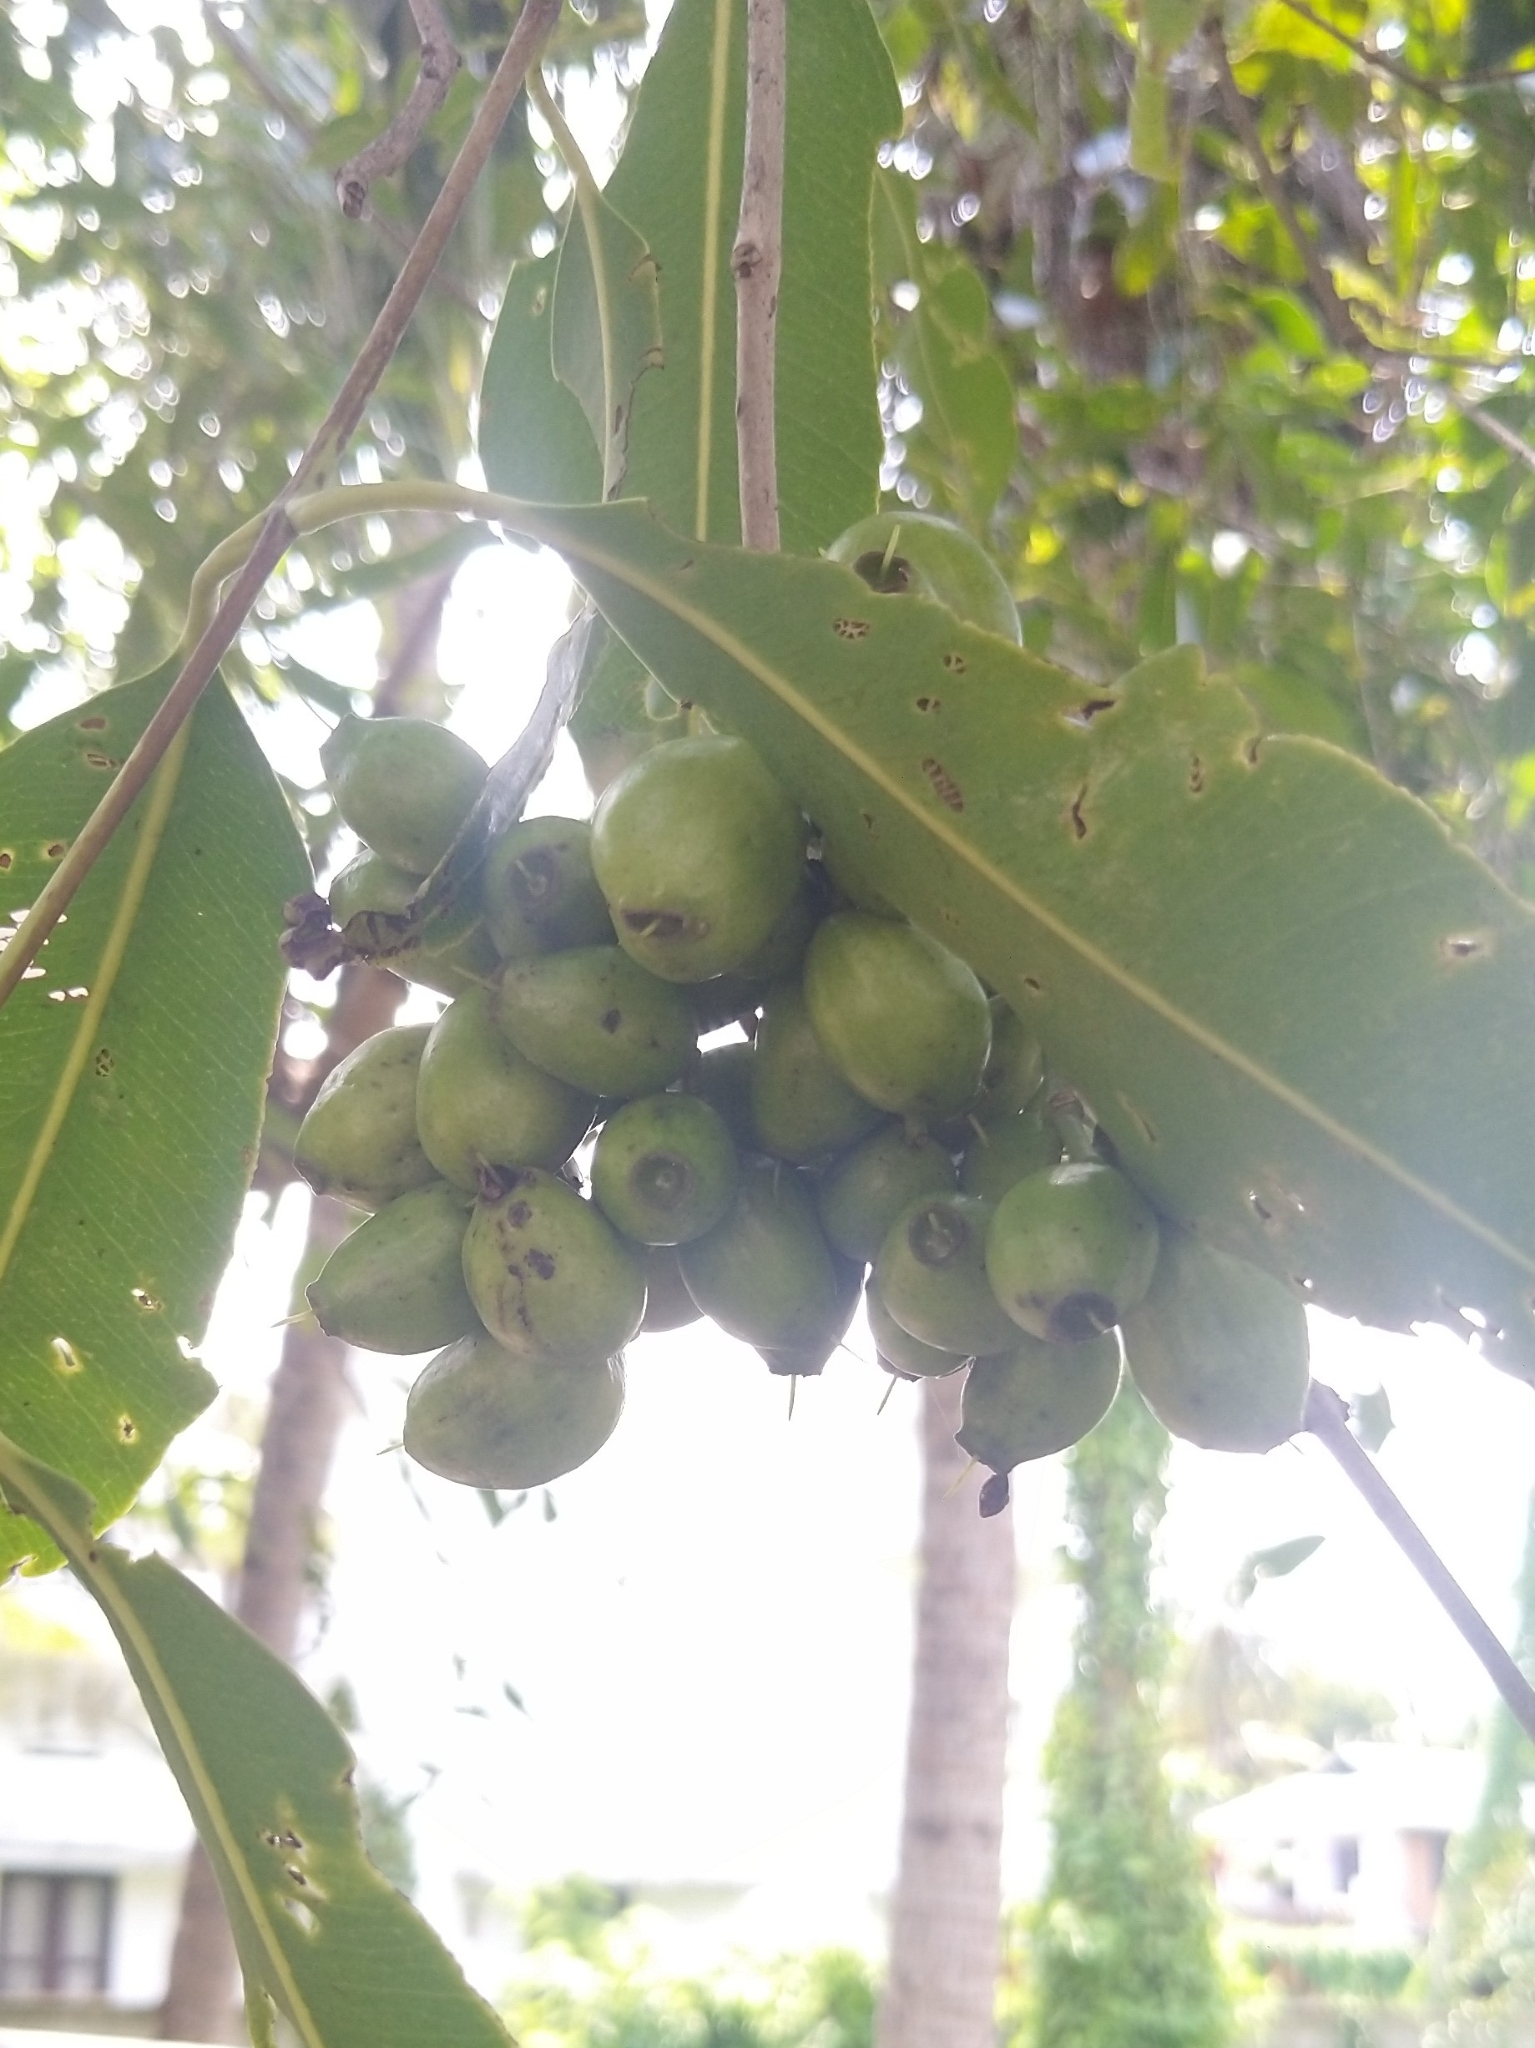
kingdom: Plantae
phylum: Tracheophyta
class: Magnoliopsida
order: Myrtales
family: Myrtaceae
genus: Syzygium
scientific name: Syzygium cumini
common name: Java plum
